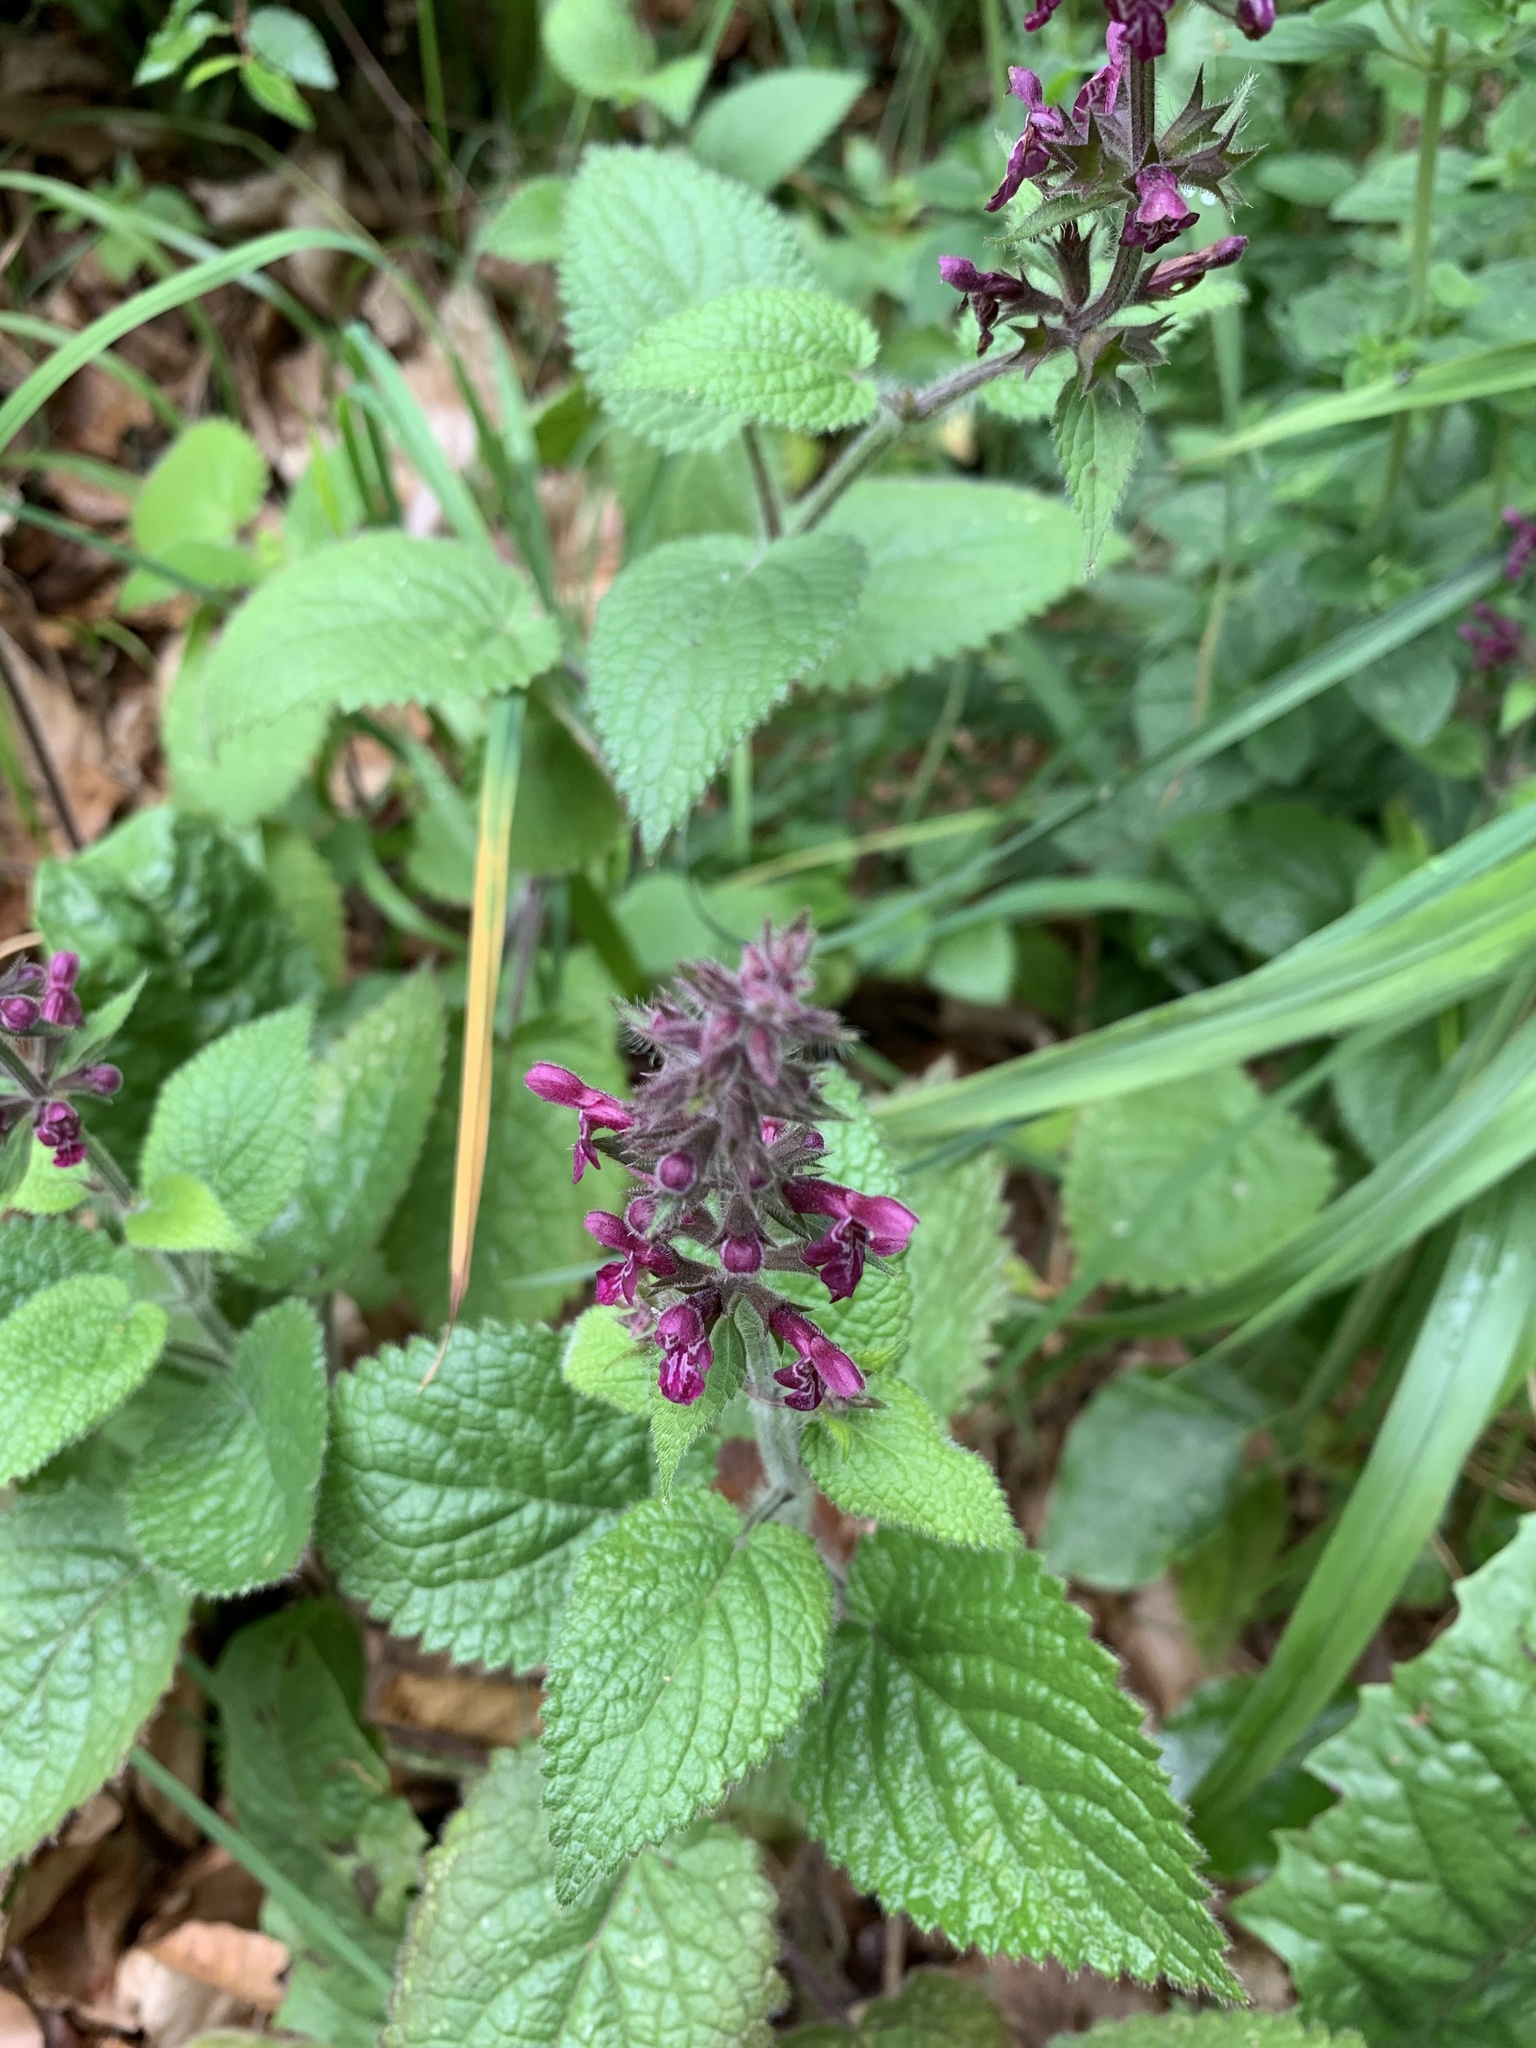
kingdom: Plantae
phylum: Tracheophyta
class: Magnoliopsida
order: Lamiales
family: Lamiaceae
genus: Stachys
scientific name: Stachys sylvatica
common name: Hedge woundwort
